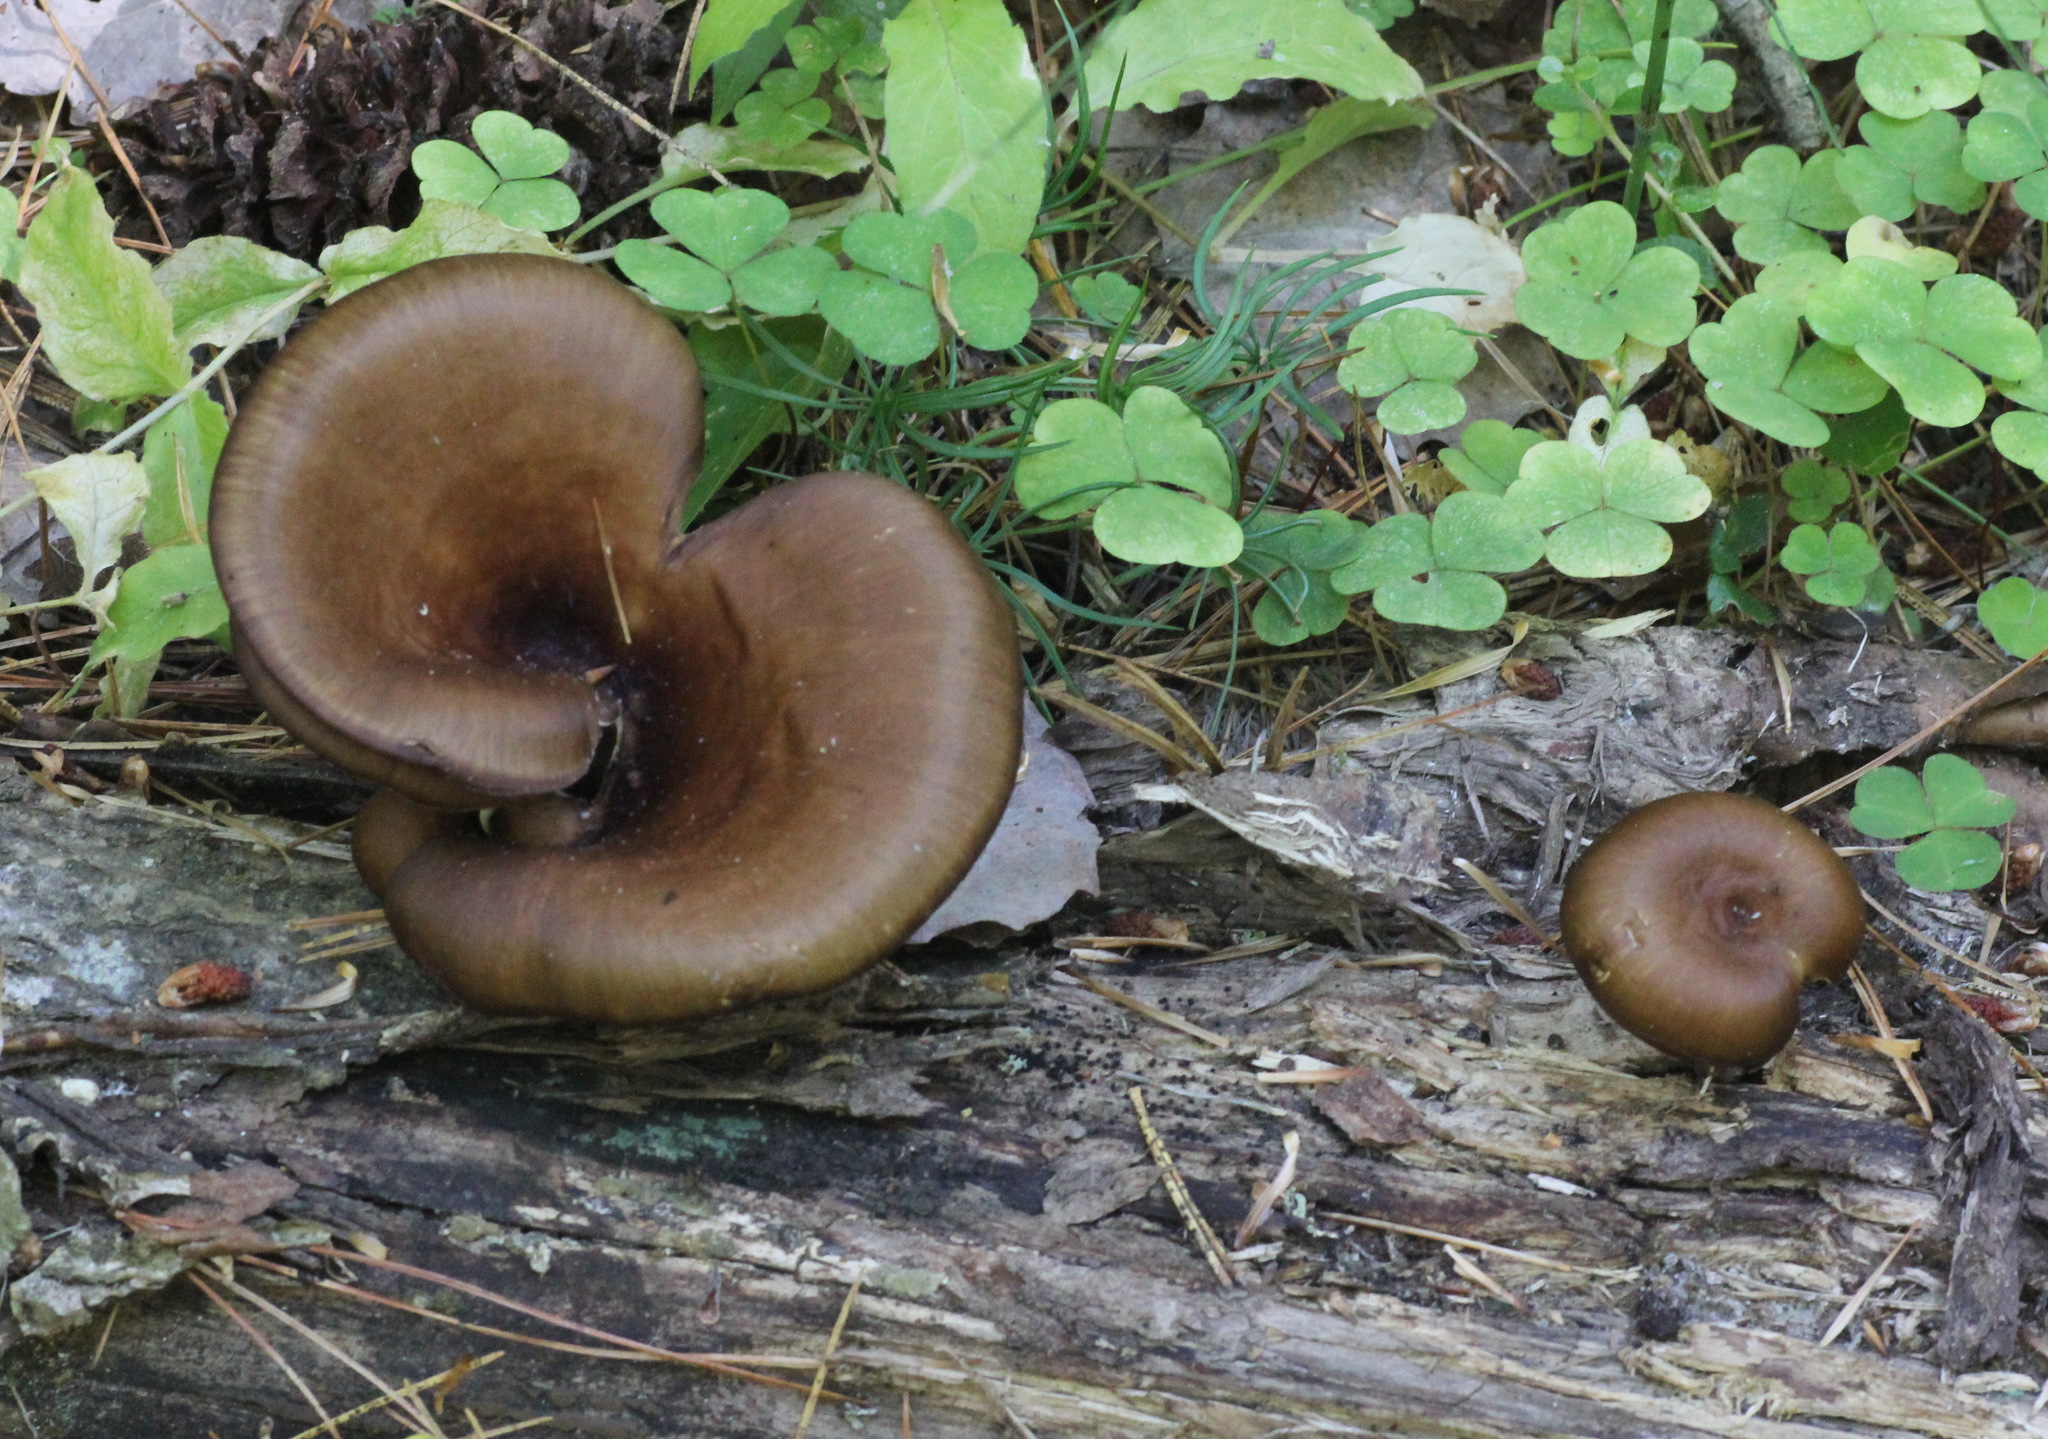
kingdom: Fungi
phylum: Basidiomycota
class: Agaricomycetes
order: Polyporales
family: Polyporaceae
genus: Picipes
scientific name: Picipes badius
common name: Bay polypore
